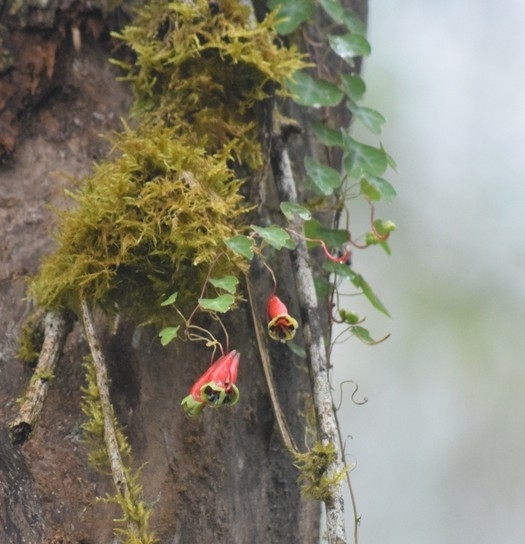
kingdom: Plantae
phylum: Tracheophyta
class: Magnoliopsida
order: Brassicales
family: Tropaeolaceae
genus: Tropaeolum
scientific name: Tropaeolum trilobum
